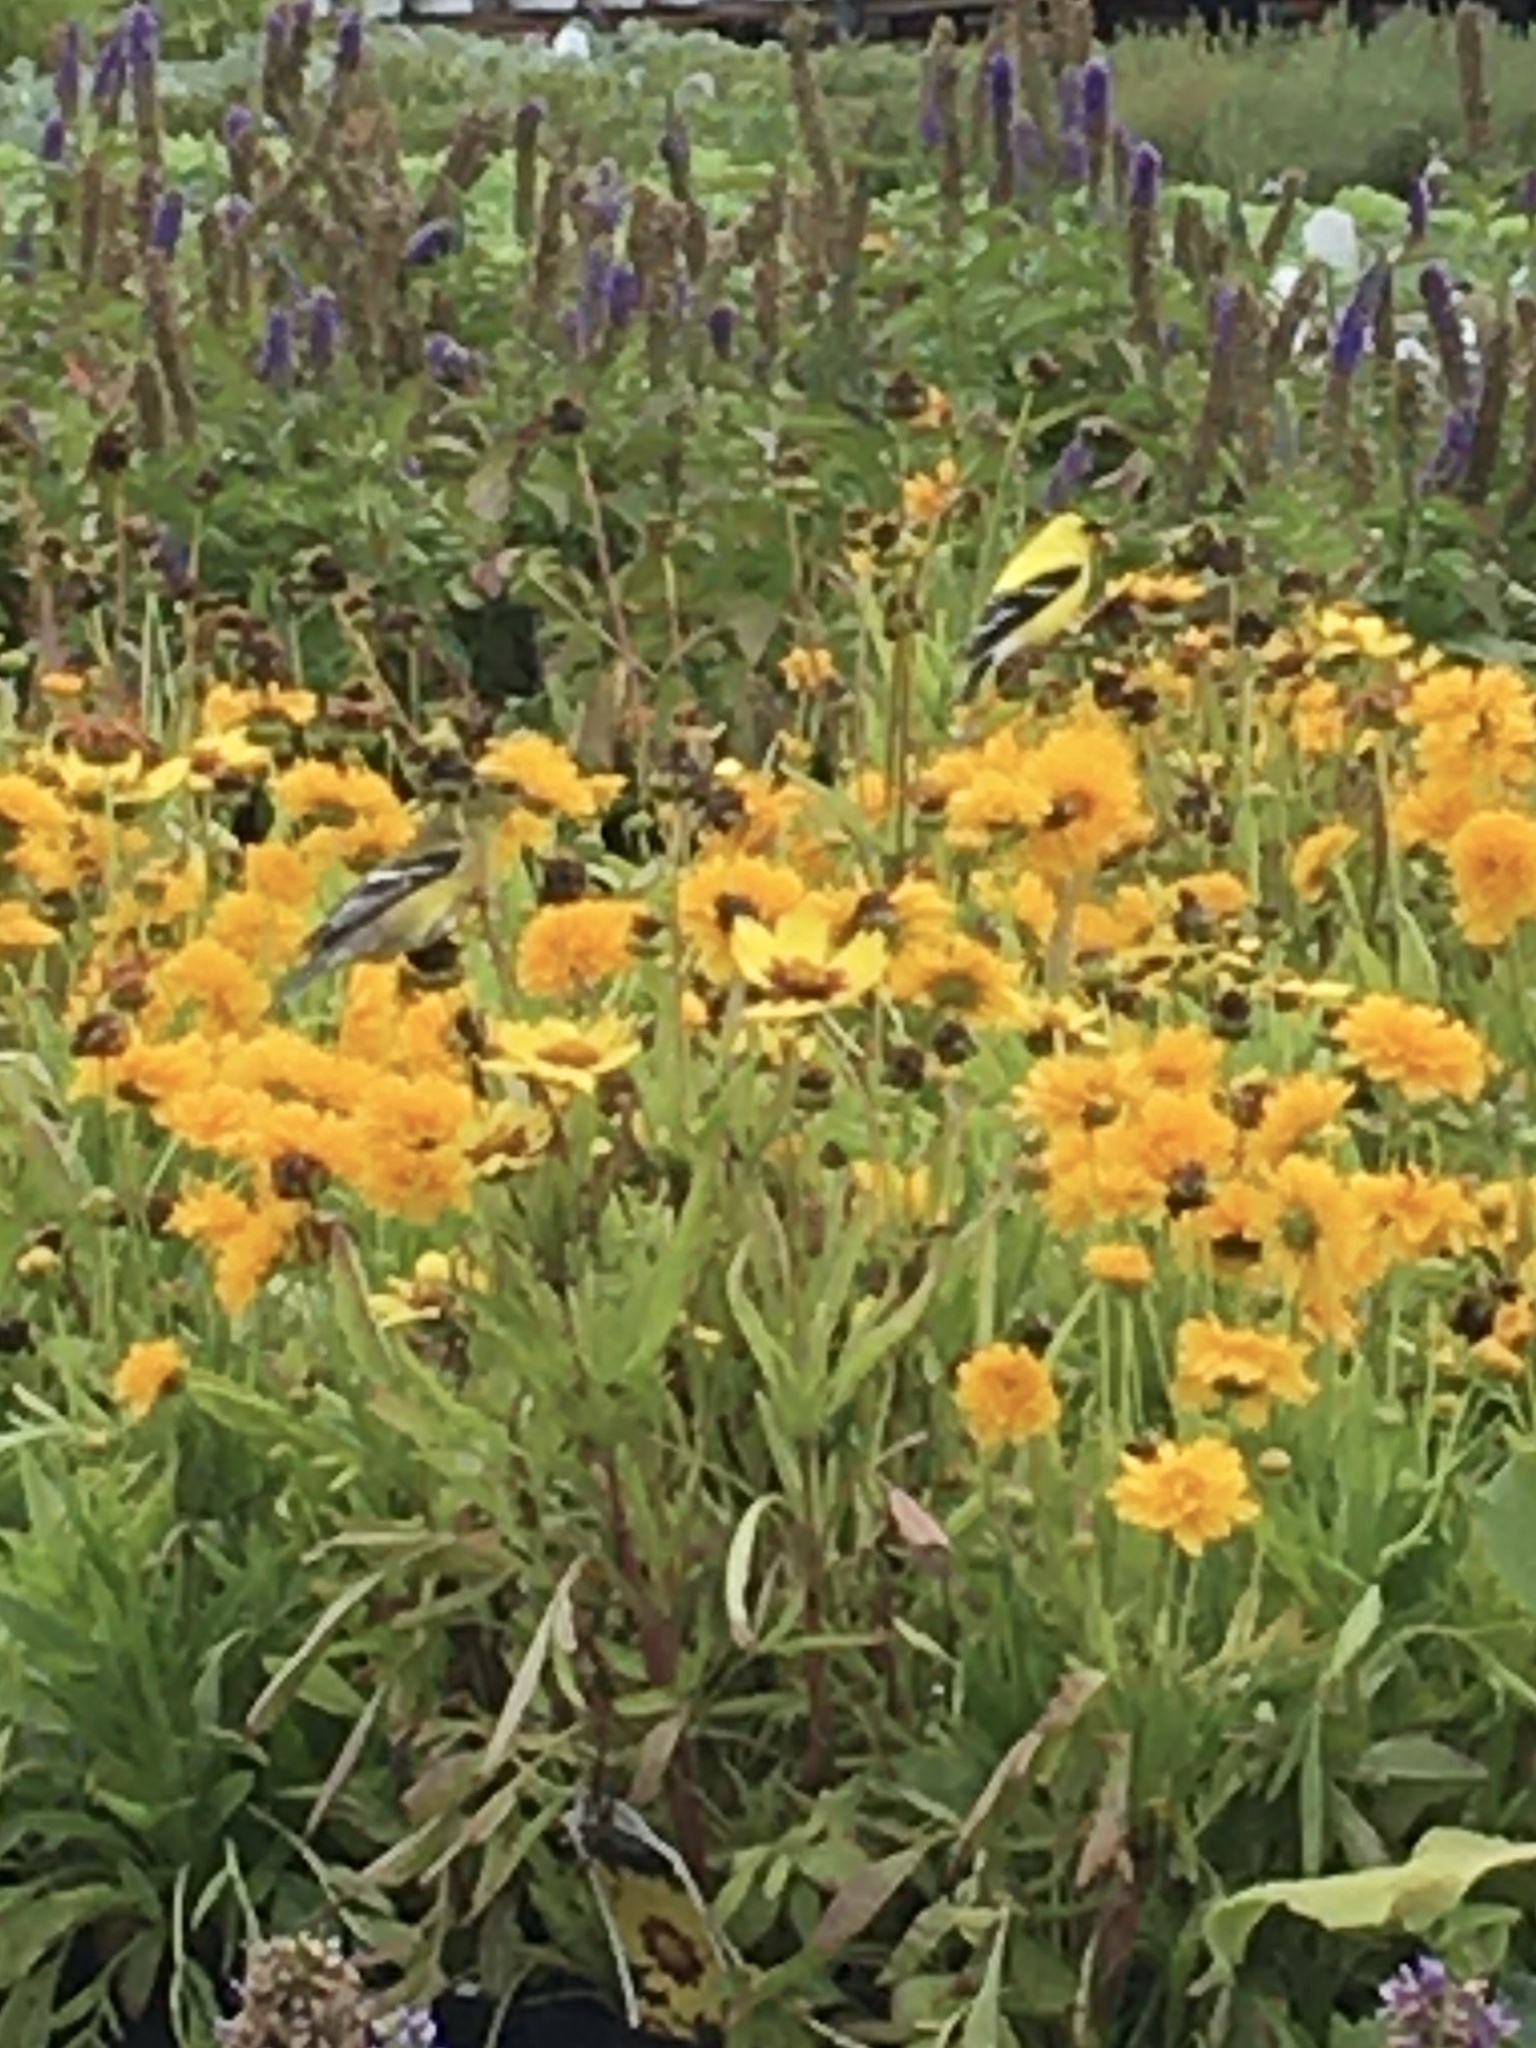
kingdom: Animalia
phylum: Chordata
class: Aves
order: Passeriformes
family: Fringillidae
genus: Spinus
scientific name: Spinus tristis
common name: American goldfinch
